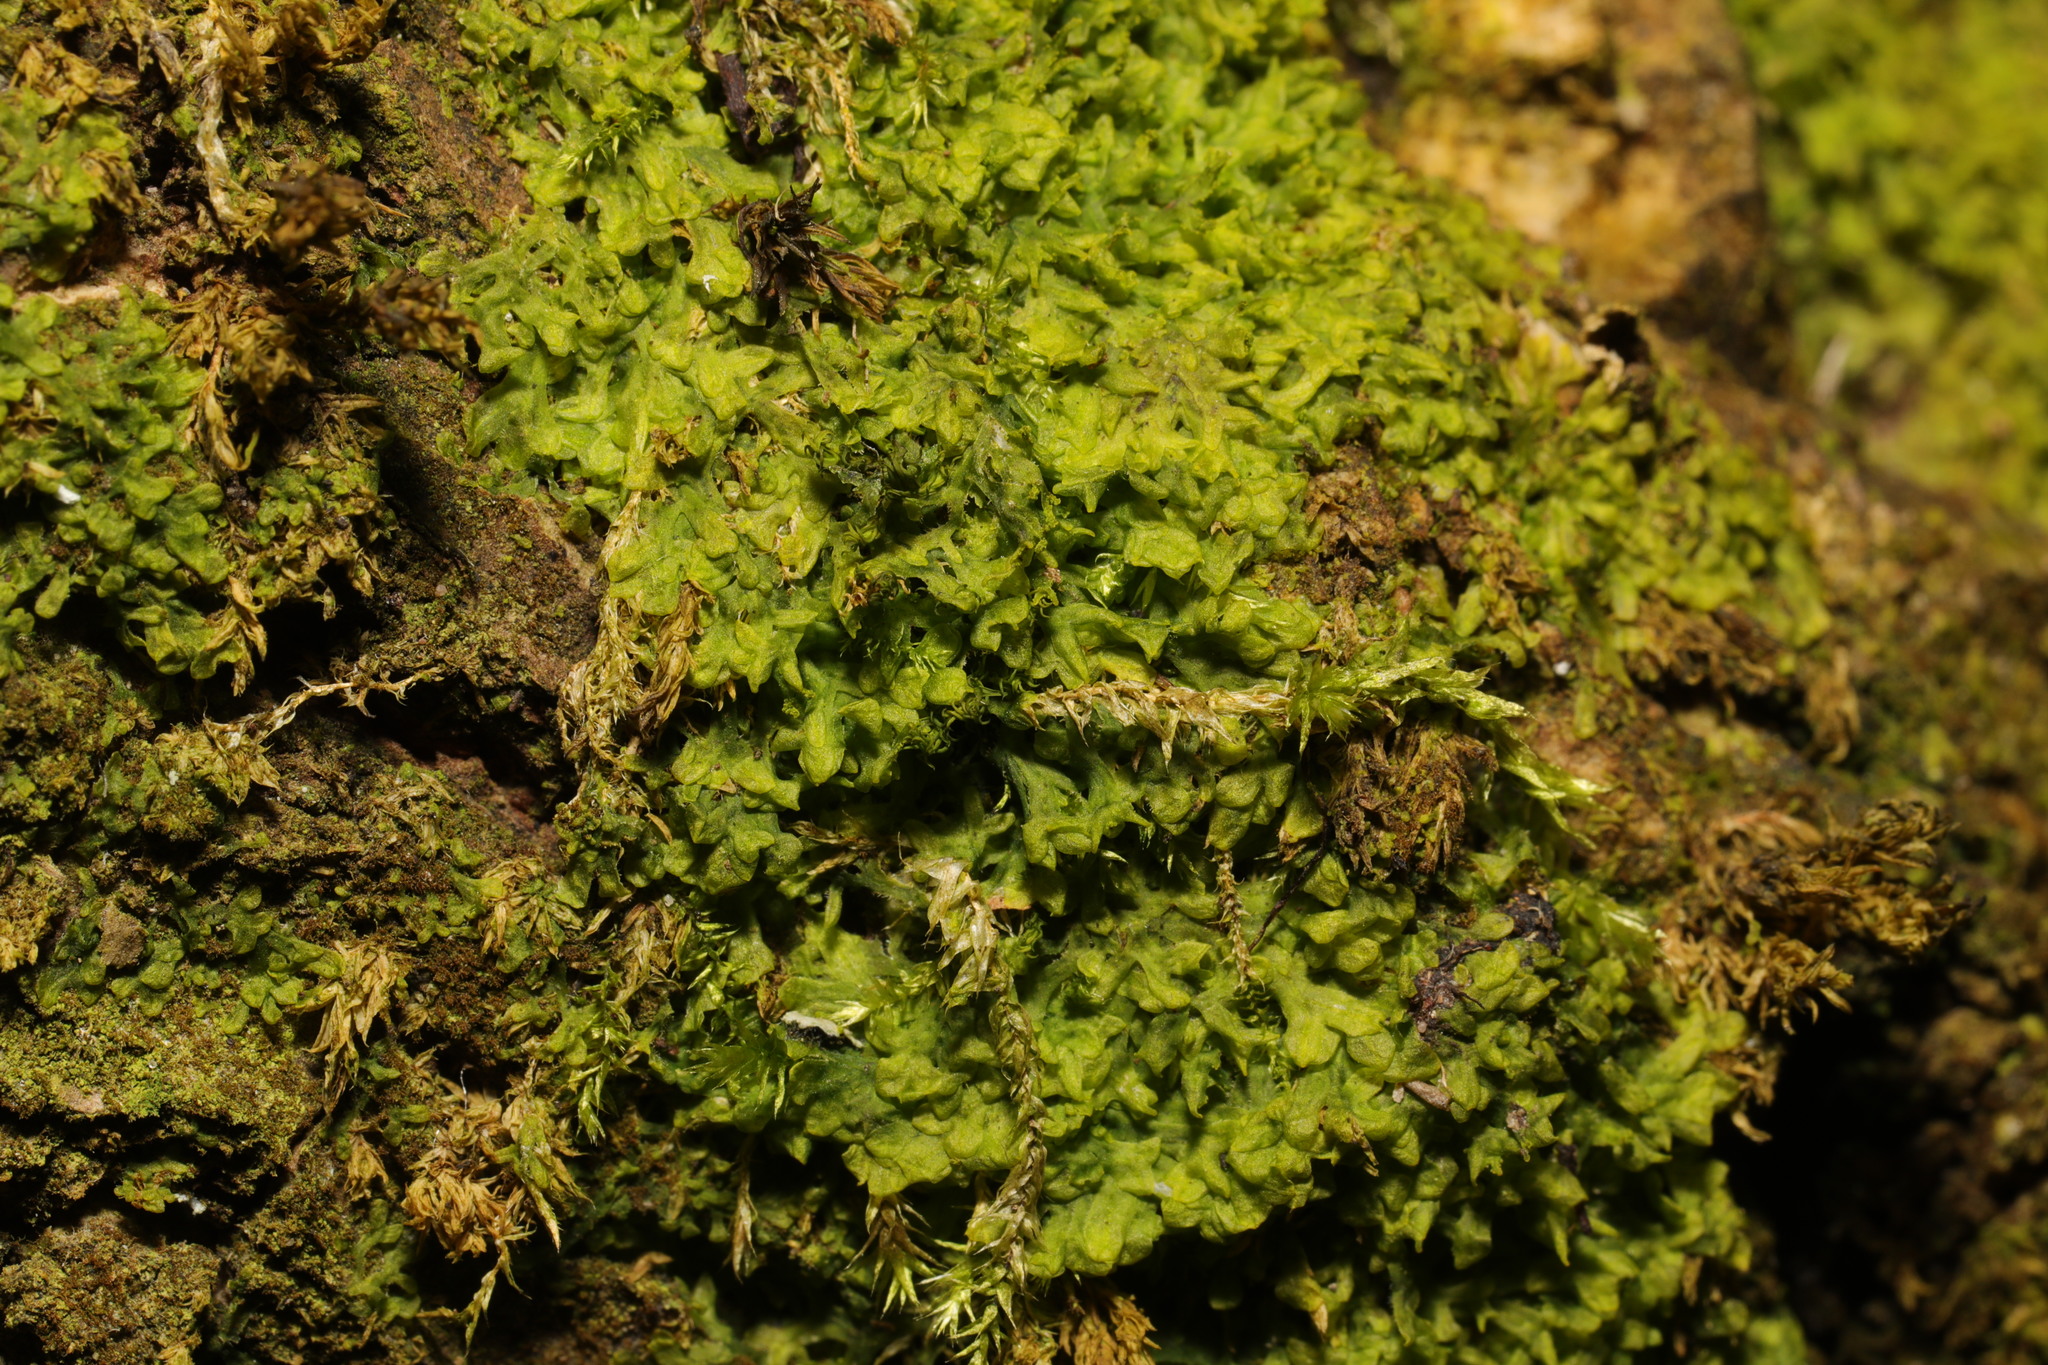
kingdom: Plantae
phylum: Marchantiophyta
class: Jungermanniopsida
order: Metzgeriales
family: Metzgeriaceae
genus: Metzgeria
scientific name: Metzgeria furcata
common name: Forked veilwort
